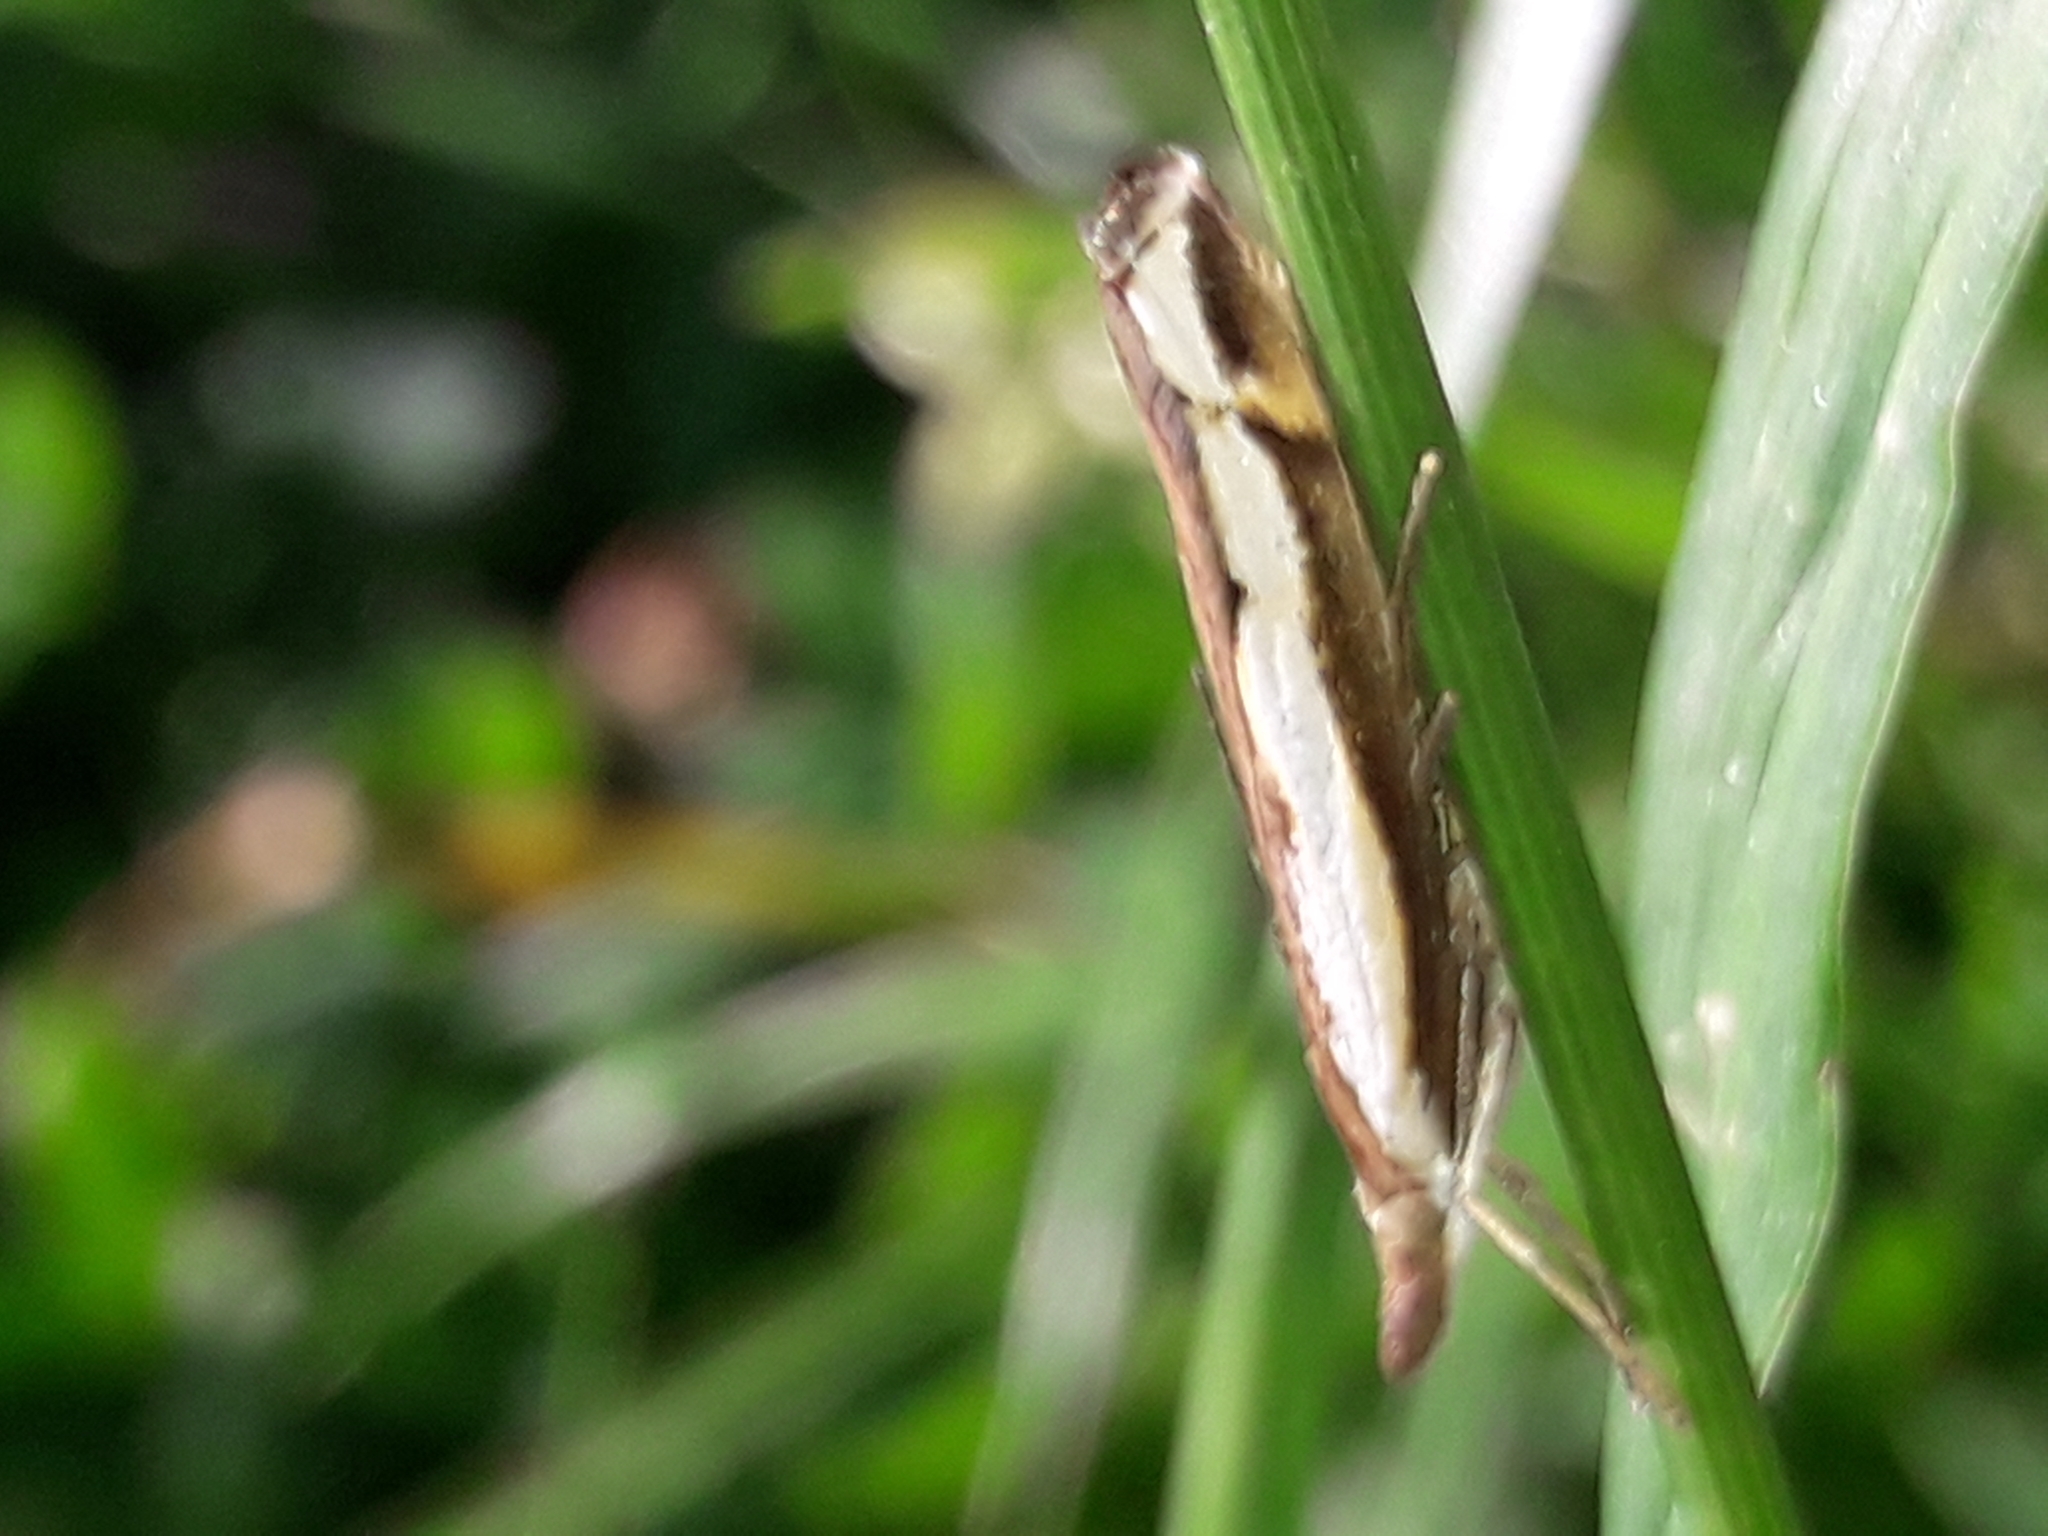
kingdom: Animalia
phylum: Arthropoda
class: Insecta
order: Lepidoptera
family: Crambidae
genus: Orocrambus
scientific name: Orocrambus flexuosellus
